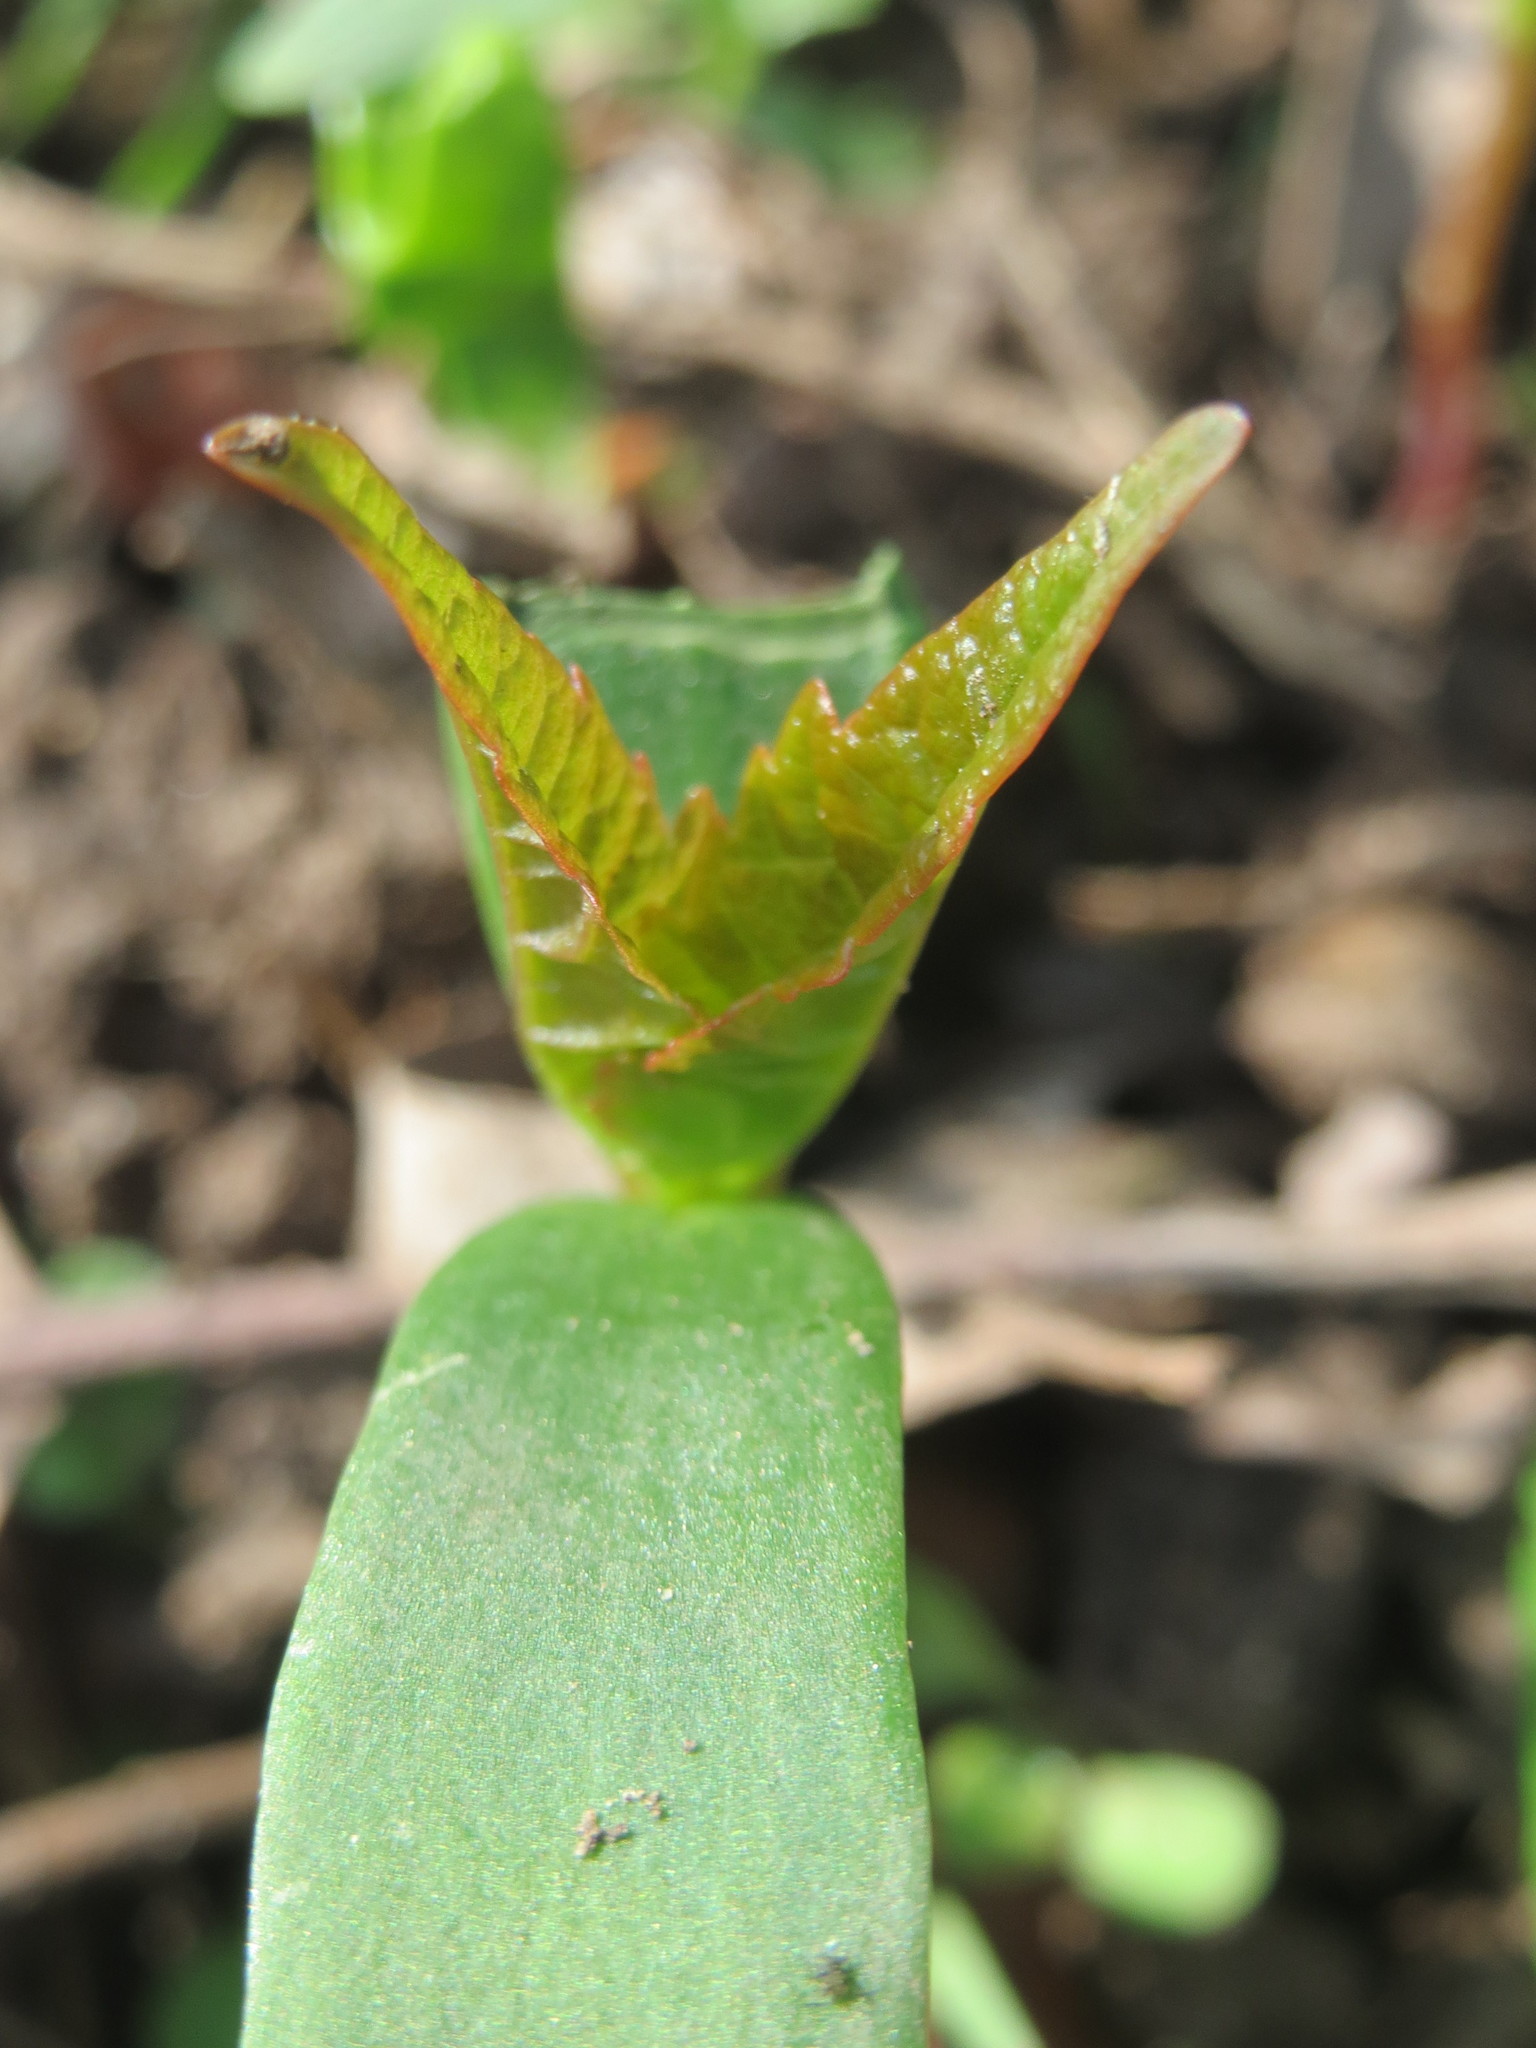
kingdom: Plantae
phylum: Tracheophyta
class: Magnoliopsida
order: Sapindales
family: Sapindaceae
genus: Acer
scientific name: Acer pseudoplatanus
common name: Sycamore
